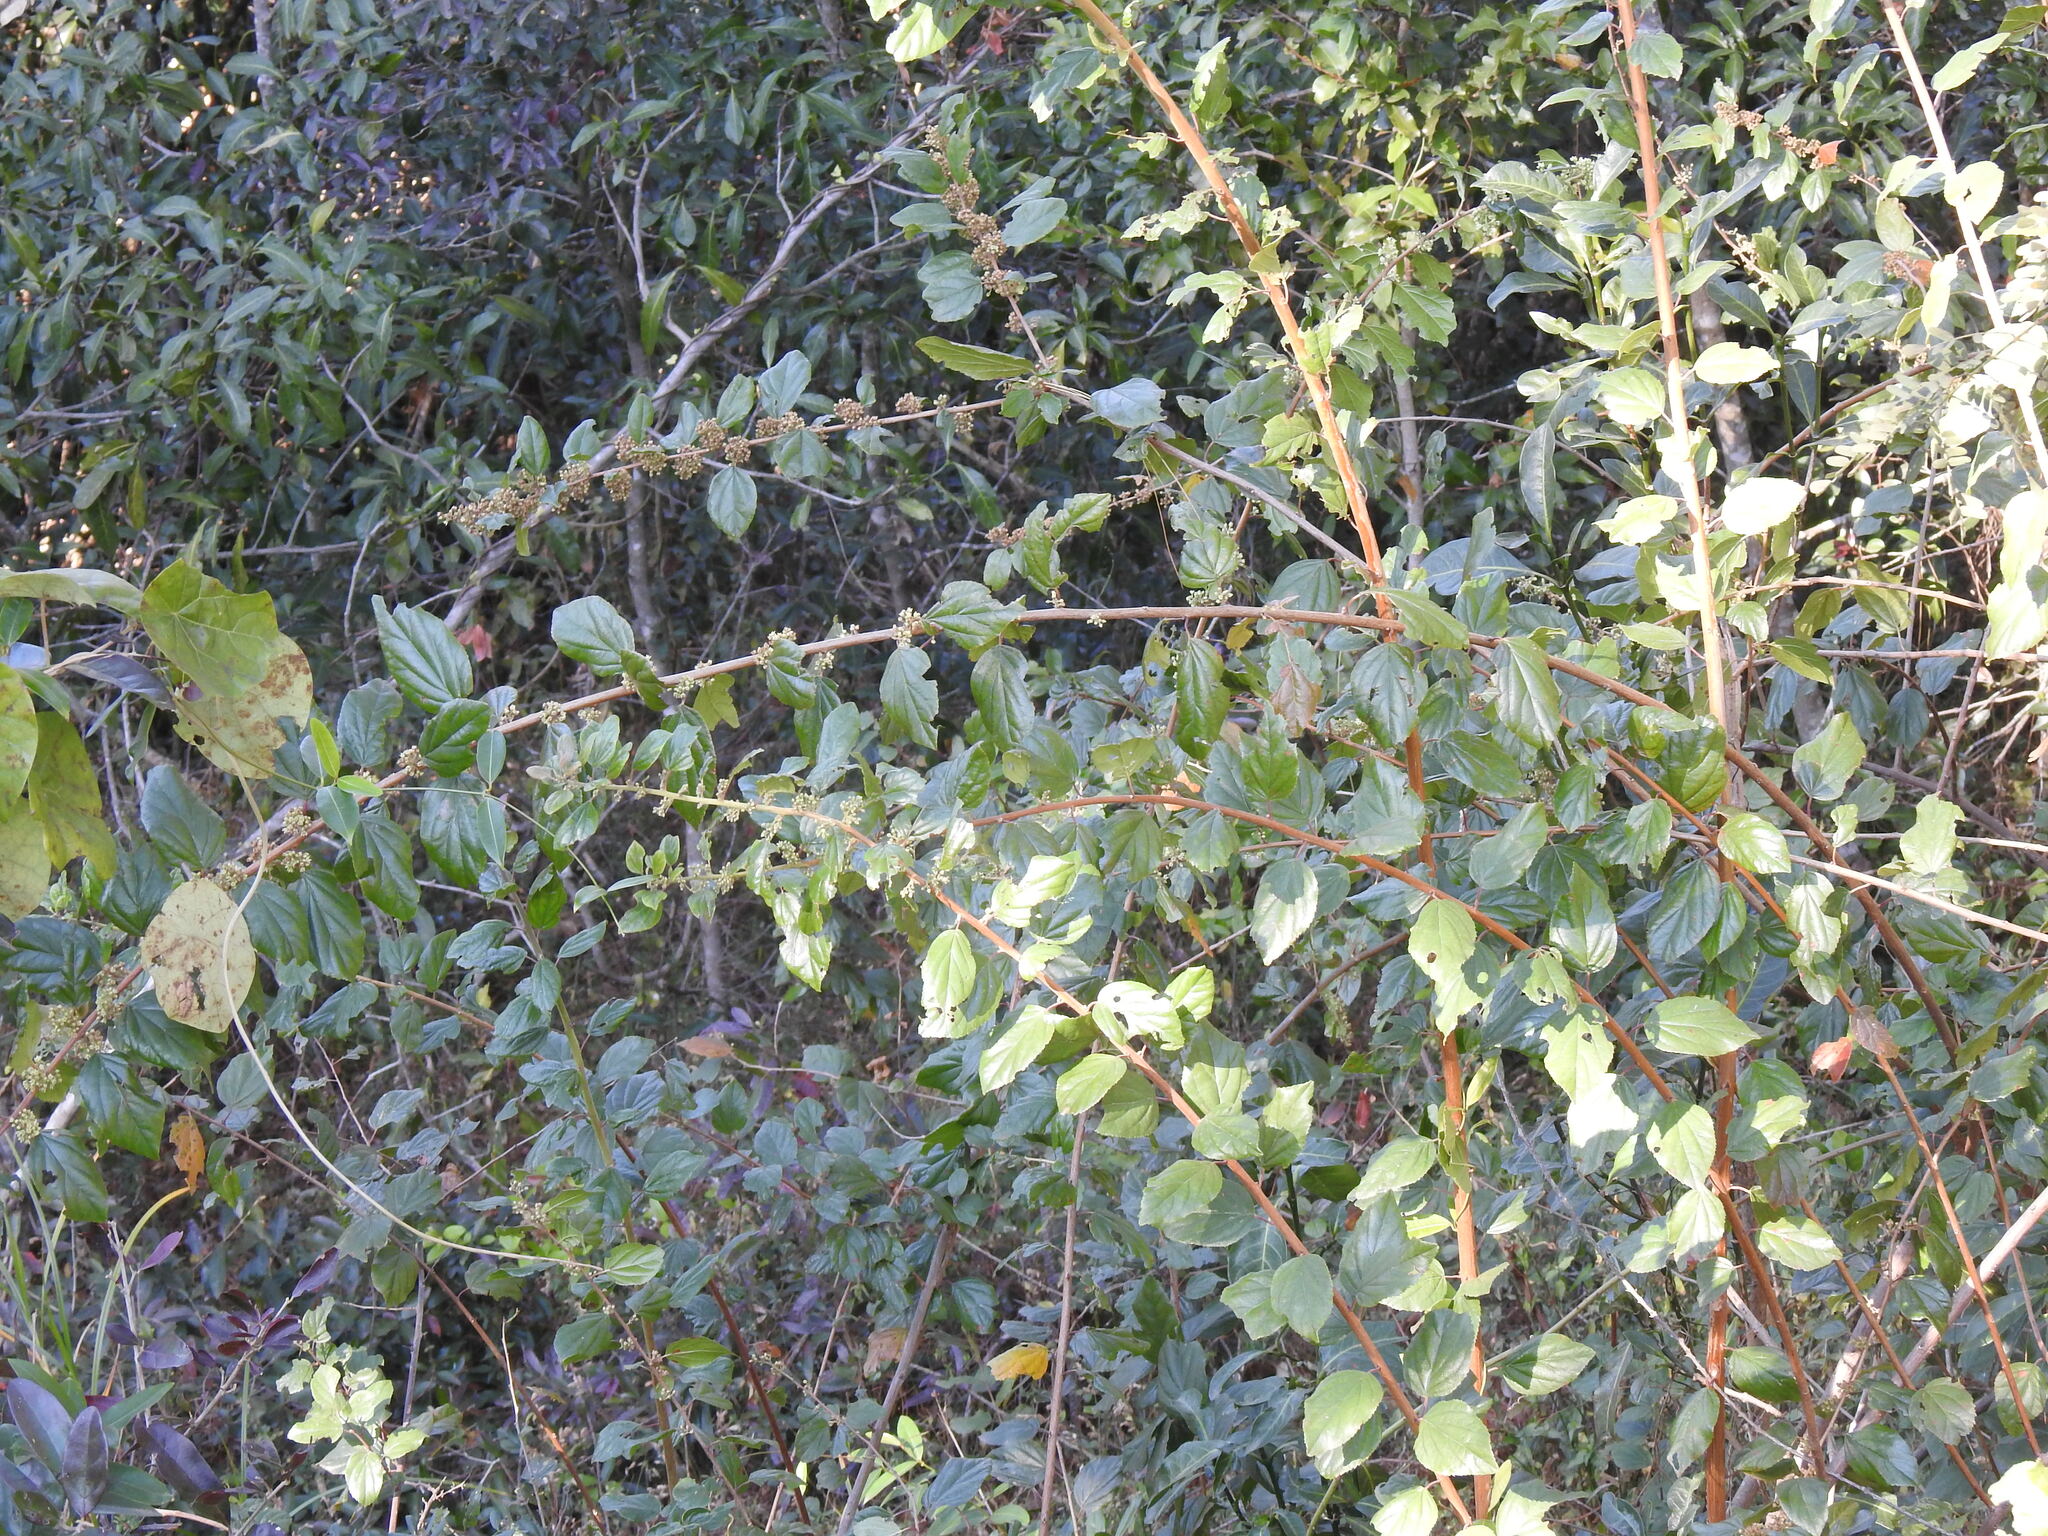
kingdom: Plantae
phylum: Tracheophyta
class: Magnoliopsida
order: Saxifragales
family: Iteaceae
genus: Itea
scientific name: Itea rhamnoides
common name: False dogwood
